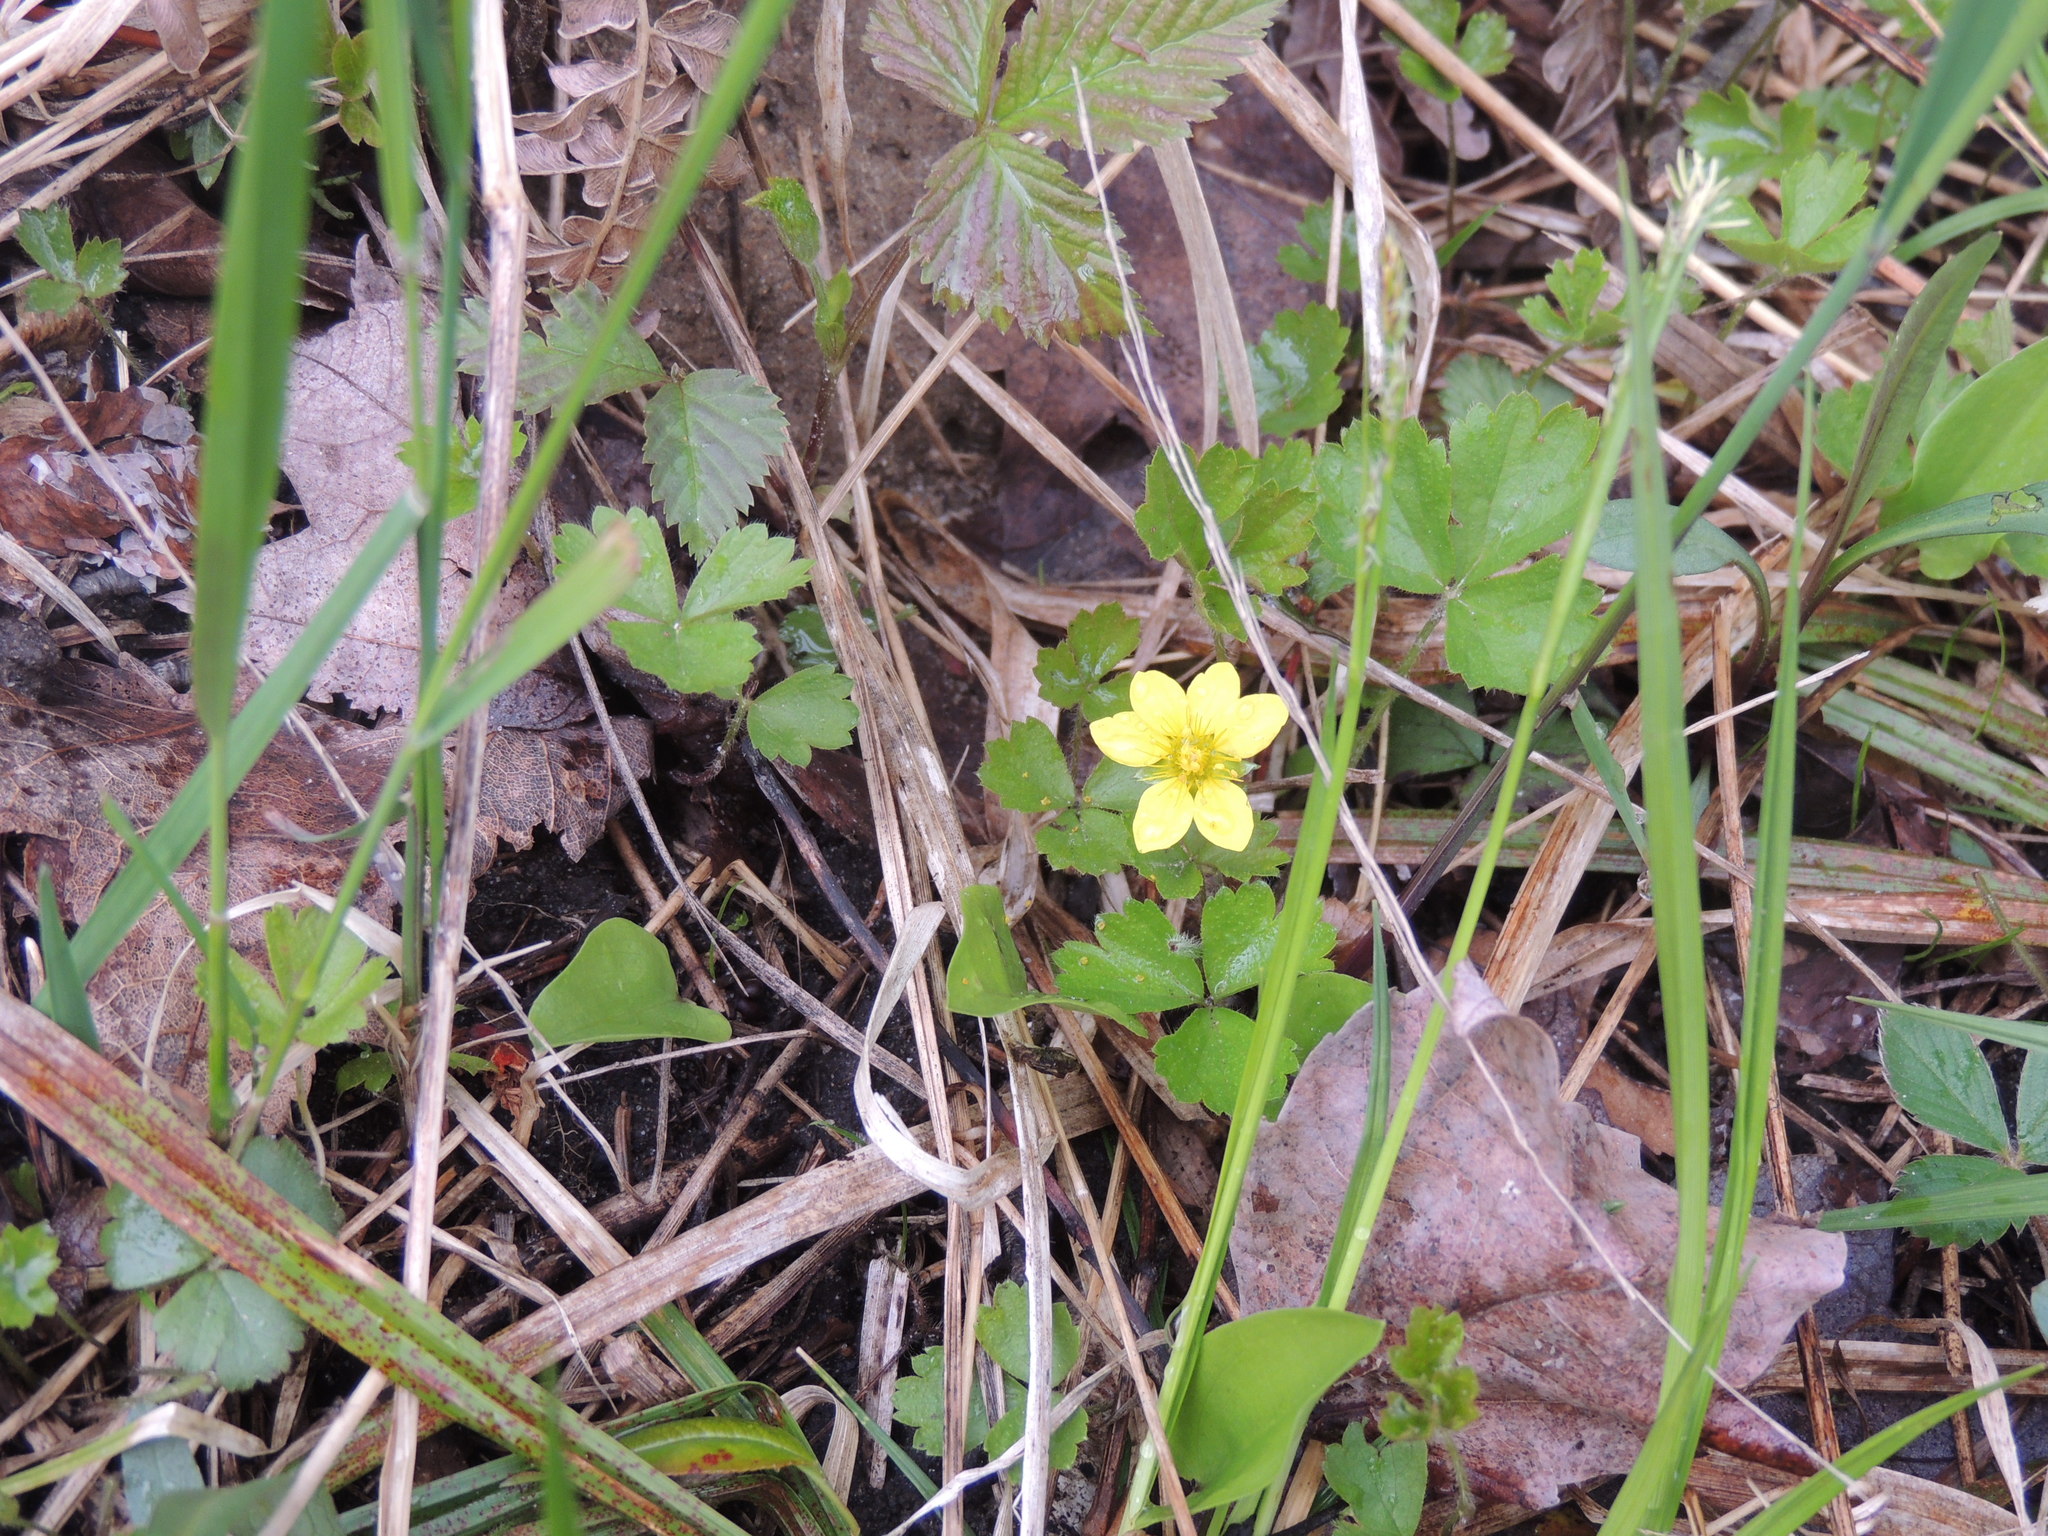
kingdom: Plantae
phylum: Tracheophyta
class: Magnoliopsida
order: Rosales
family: Rosaceae
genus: Geum
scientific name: Geum fragarioides
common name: Appalachian barren strawberry
